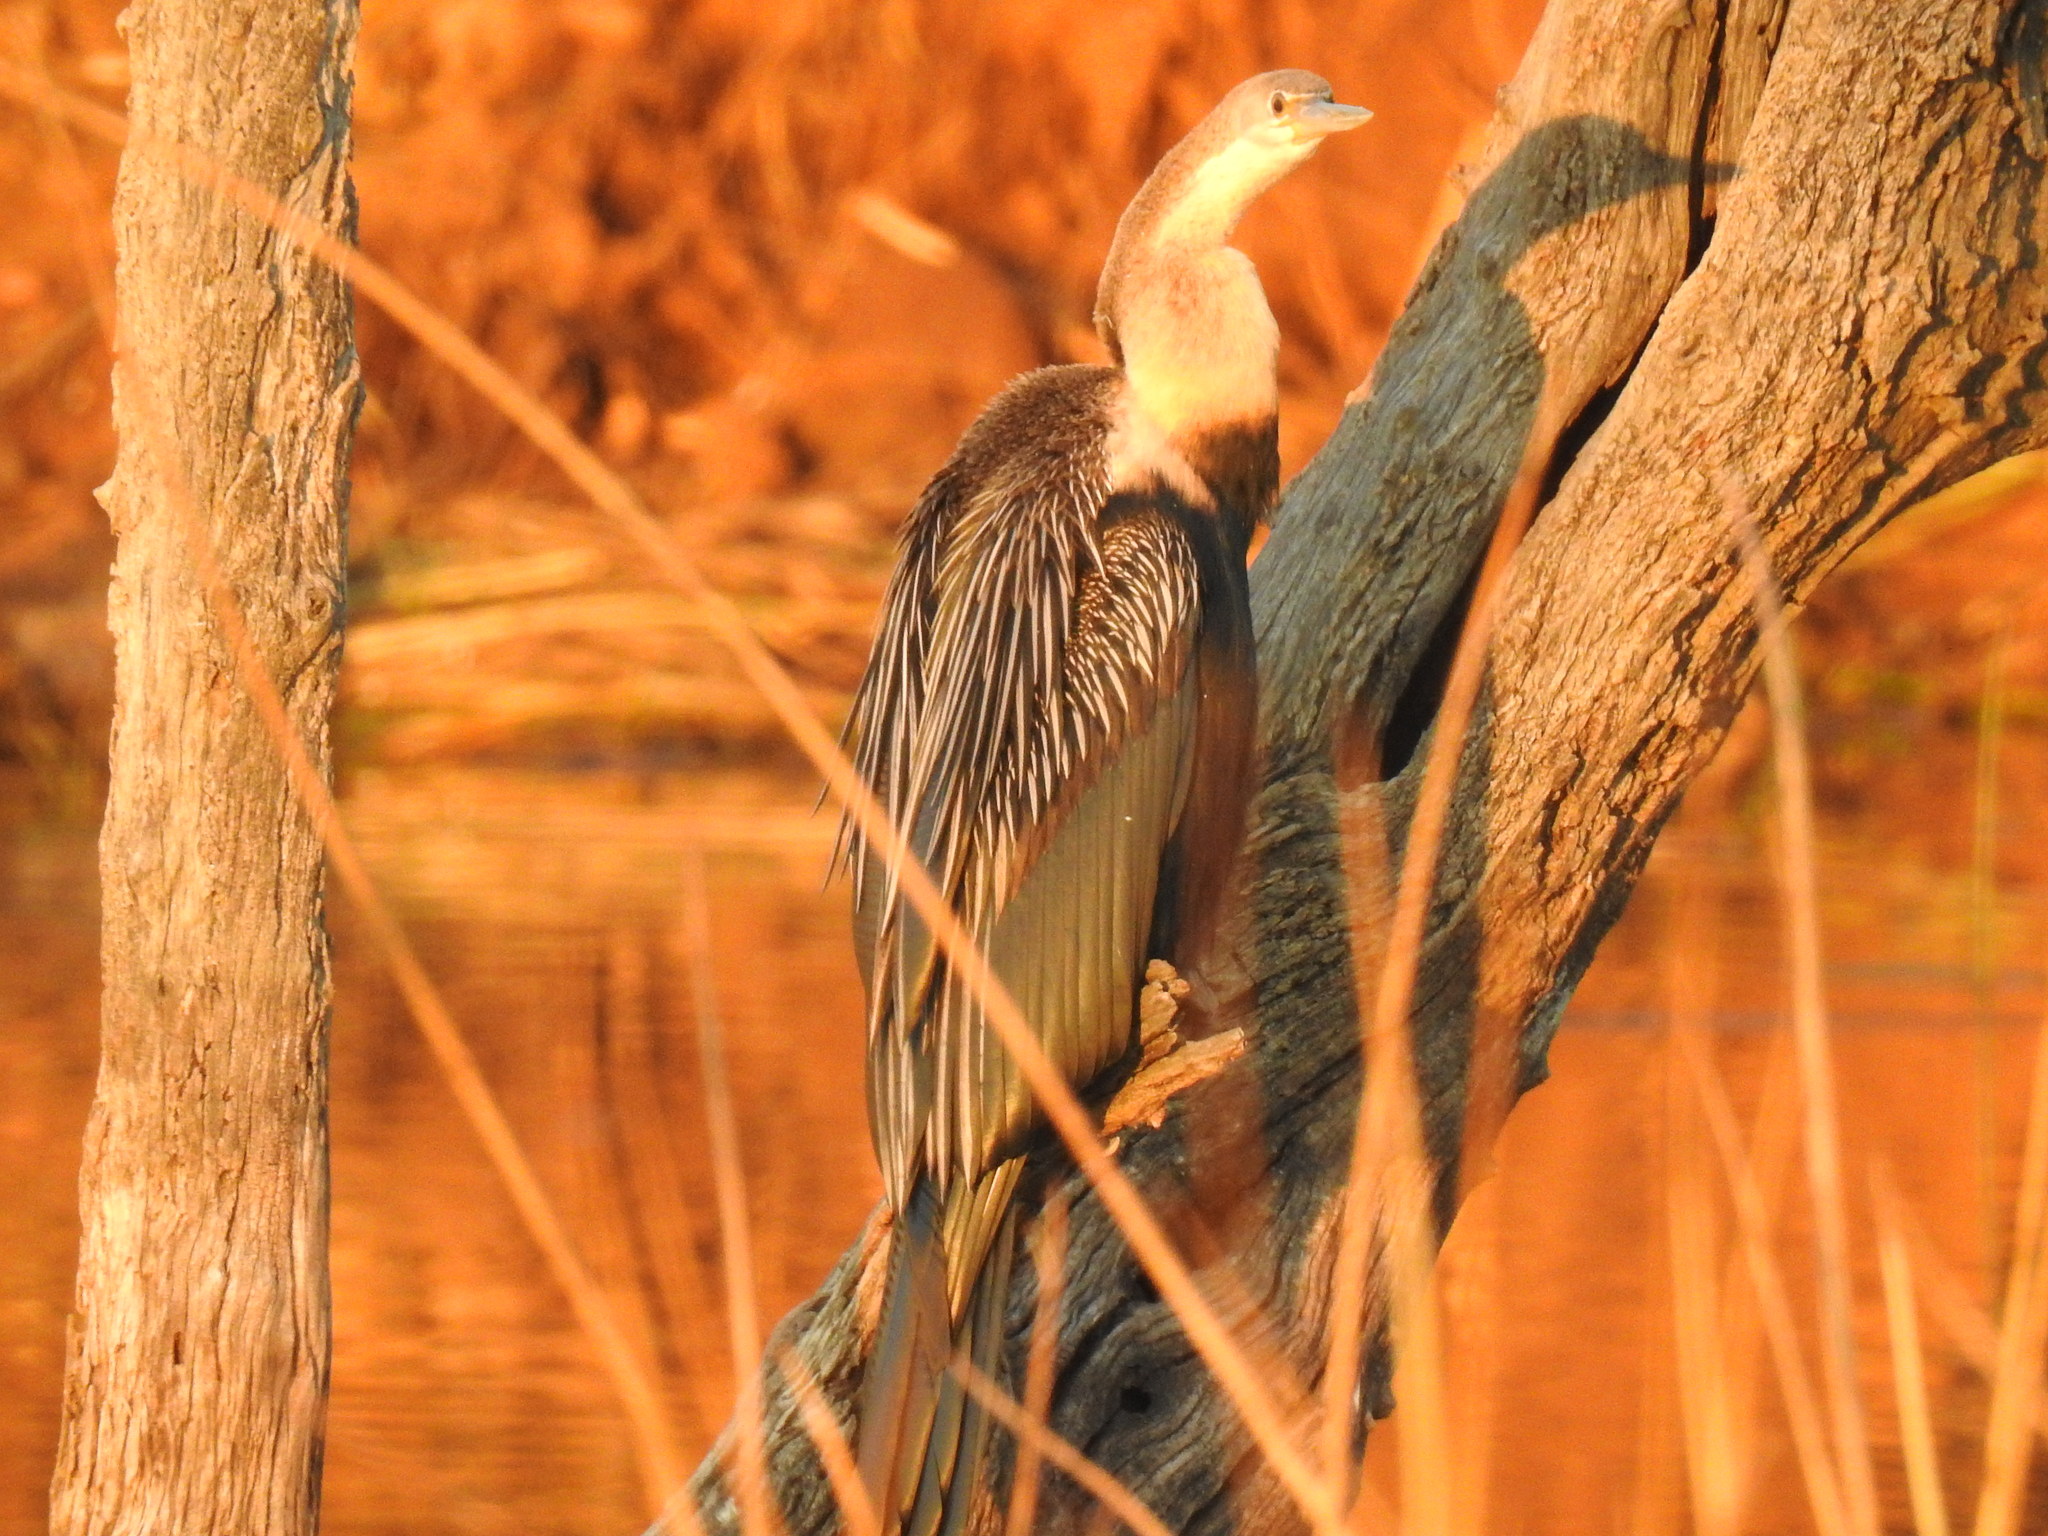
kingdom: Animalia
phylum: Chordata
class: Aves
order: Suliformes
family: Anhingidae
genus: Anhinga
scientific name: Anhinga rufa
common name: African darter
